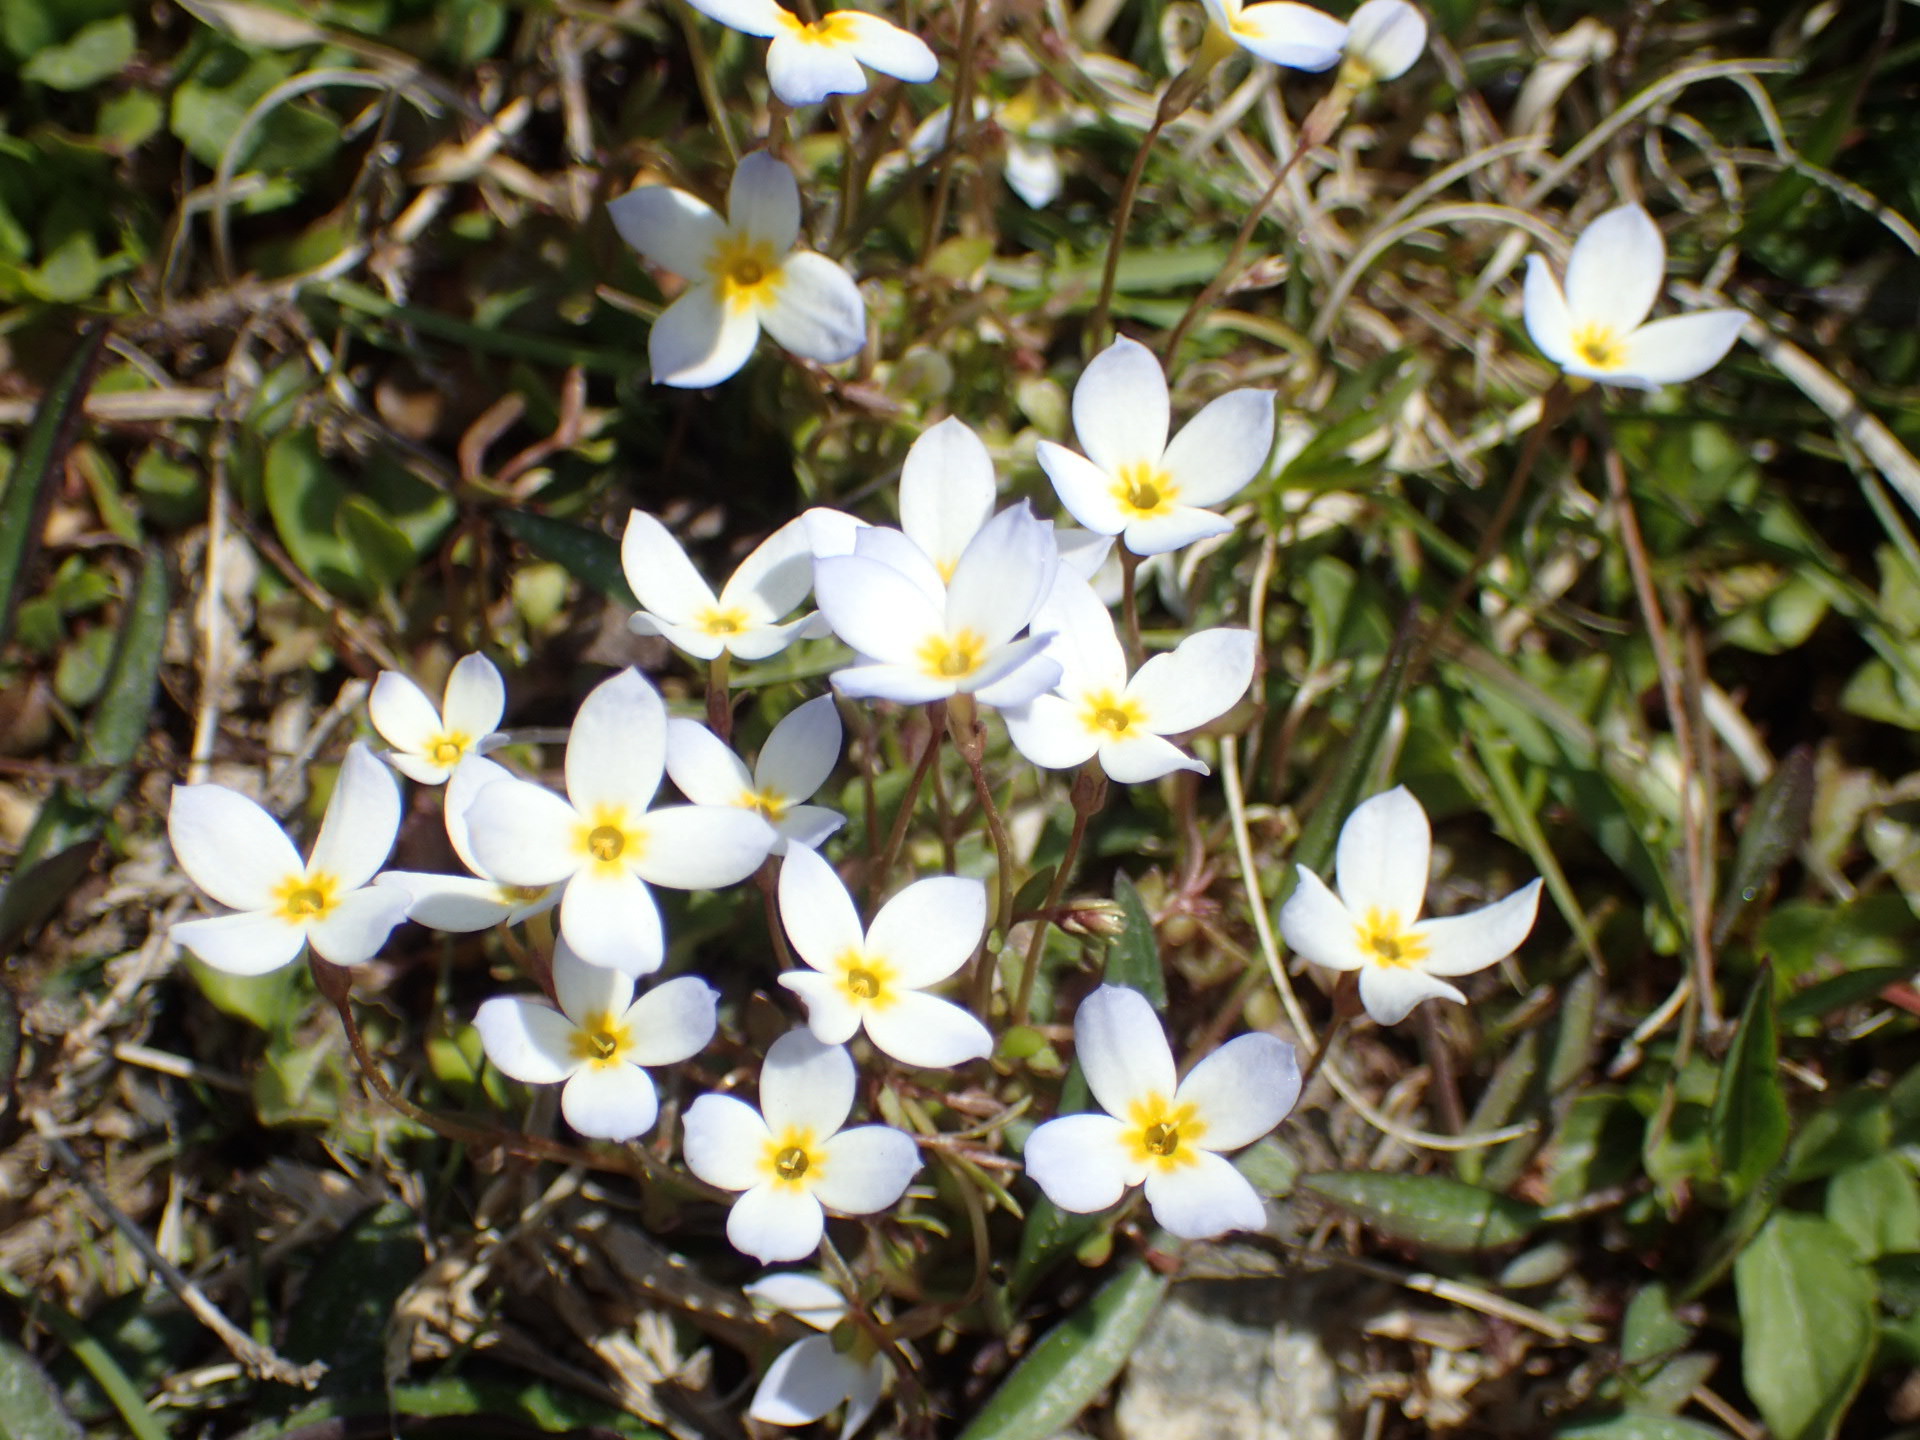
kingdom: Plantae
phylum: Tracheophyta
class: Magnoliopsida
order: Gentianales
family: Rubiaceae
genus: Houstonia
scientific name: Houstonia caerulea
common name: Bluets
